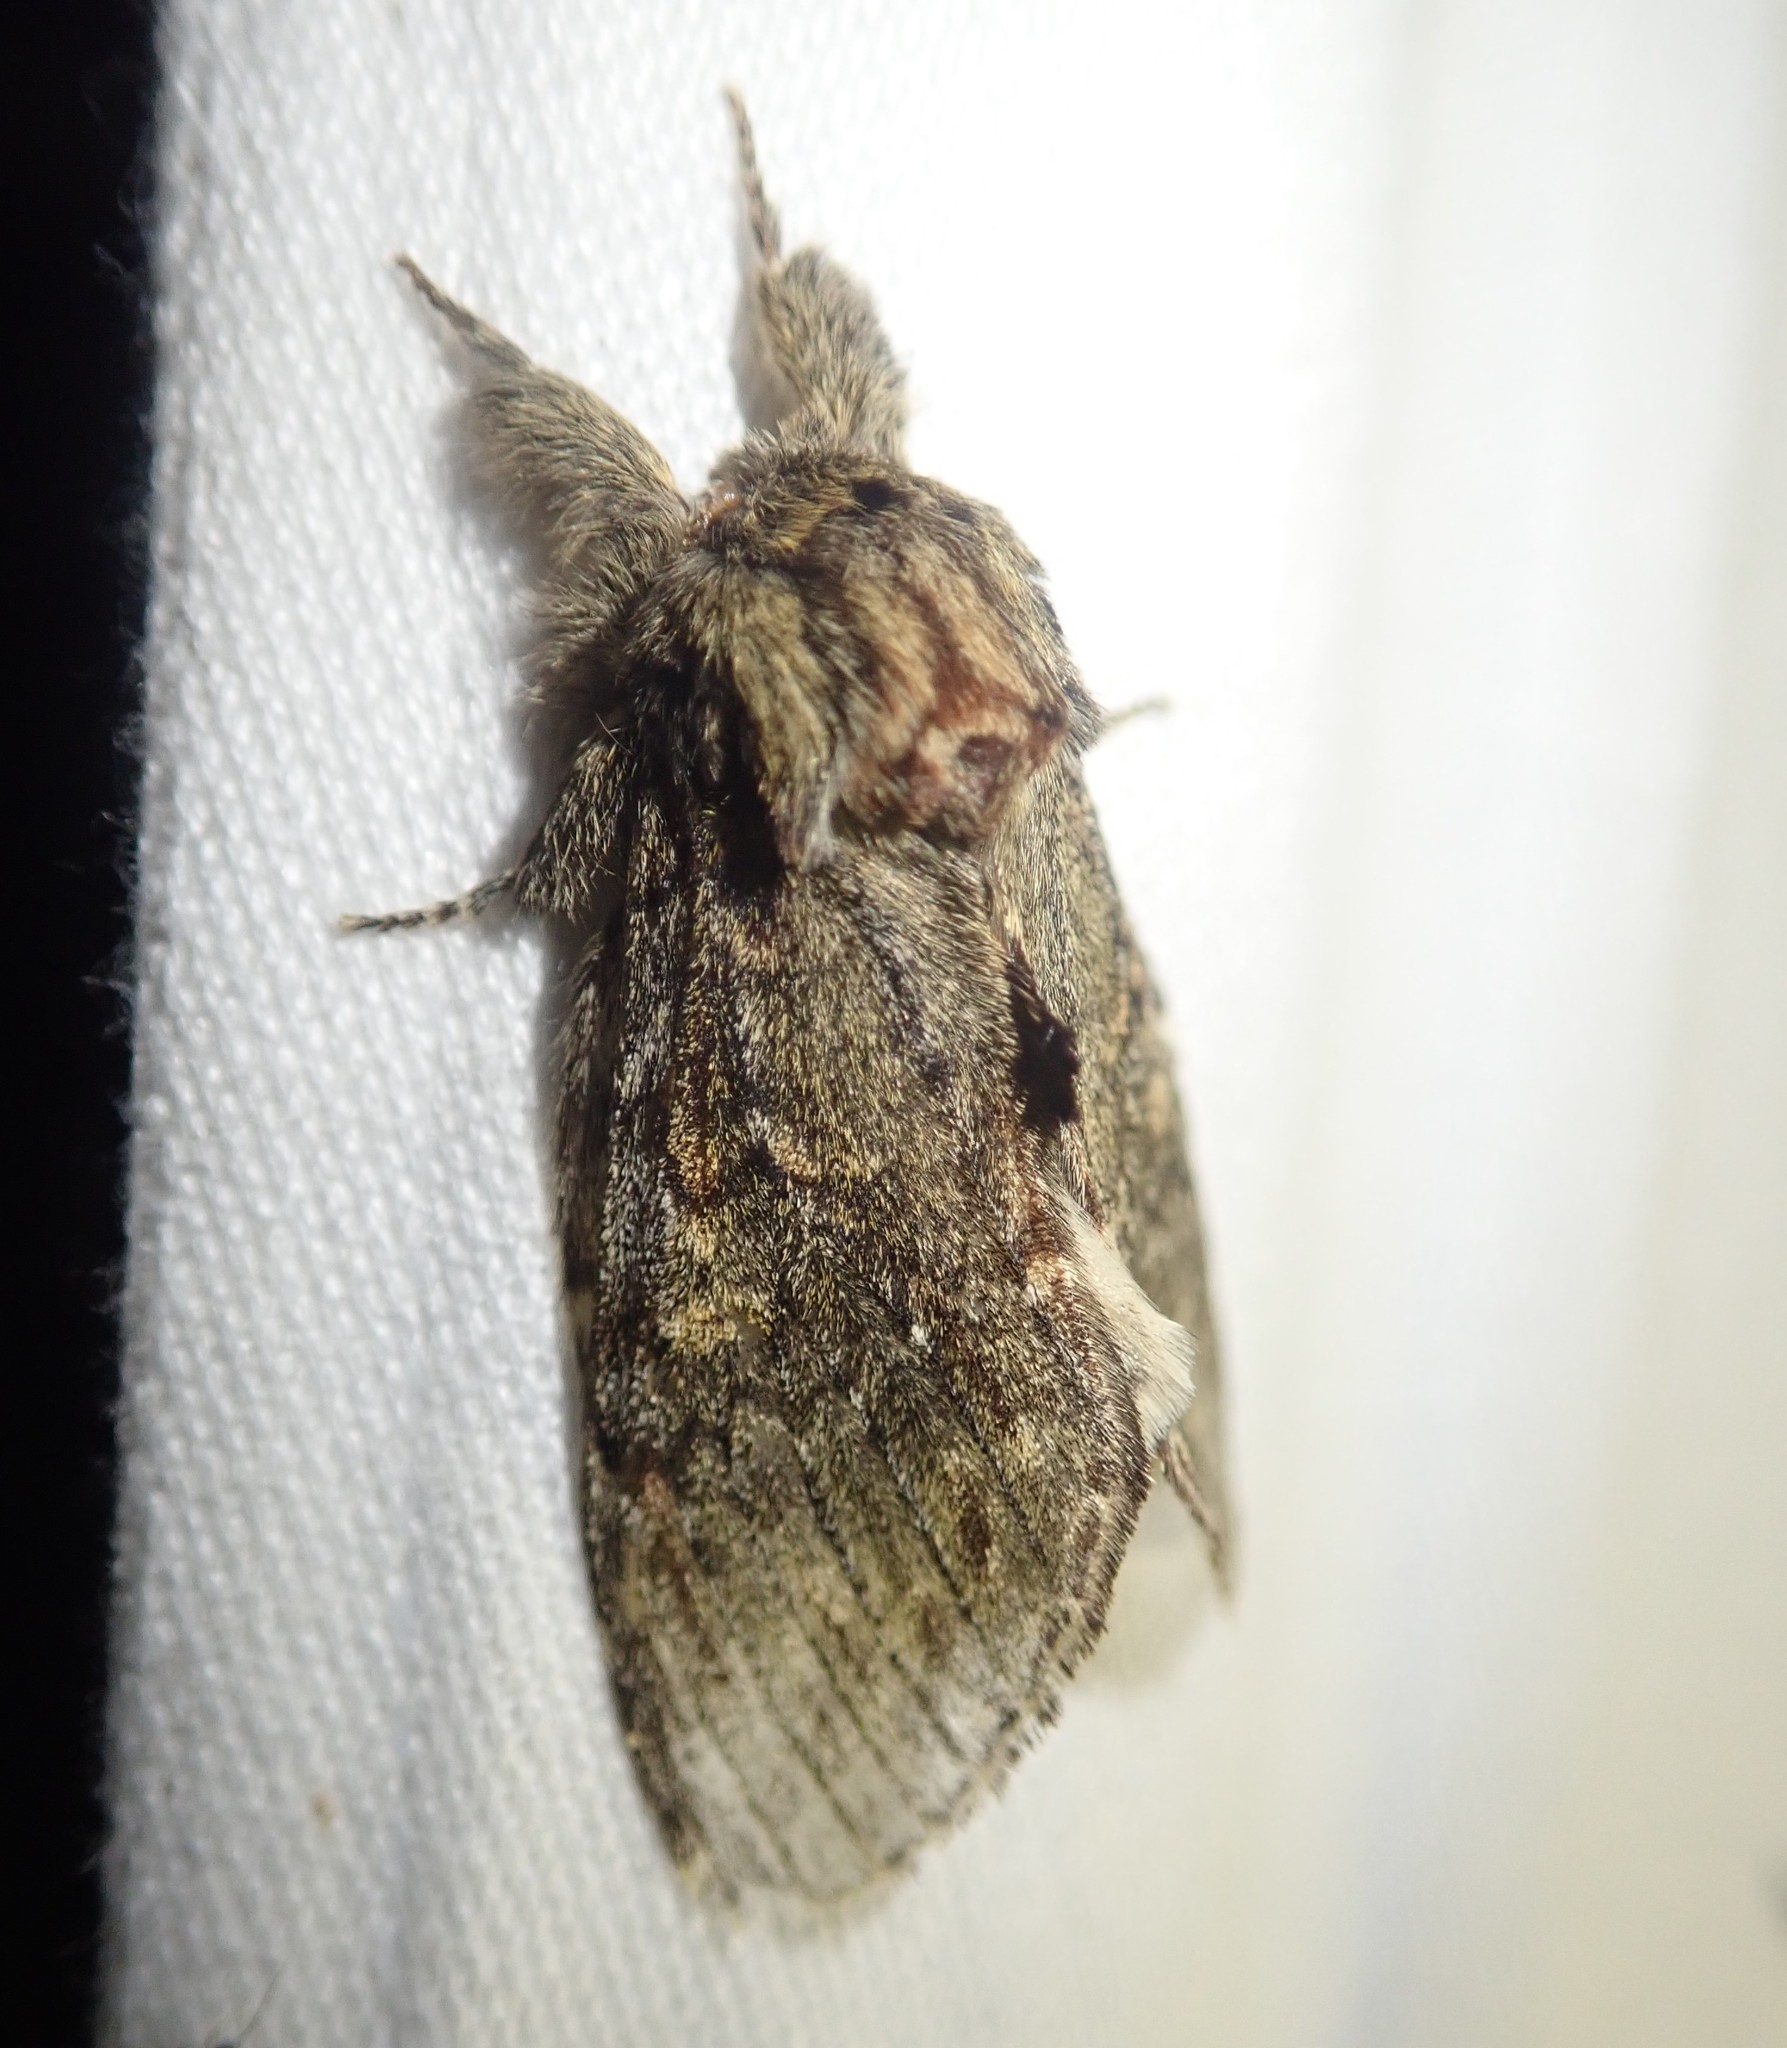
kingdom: Animalia
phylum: Arthropoda
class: Insecta
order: Lepidoptera
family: Notodontidae
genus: Peridea
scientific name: Peridea anceps
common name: Great prominent
